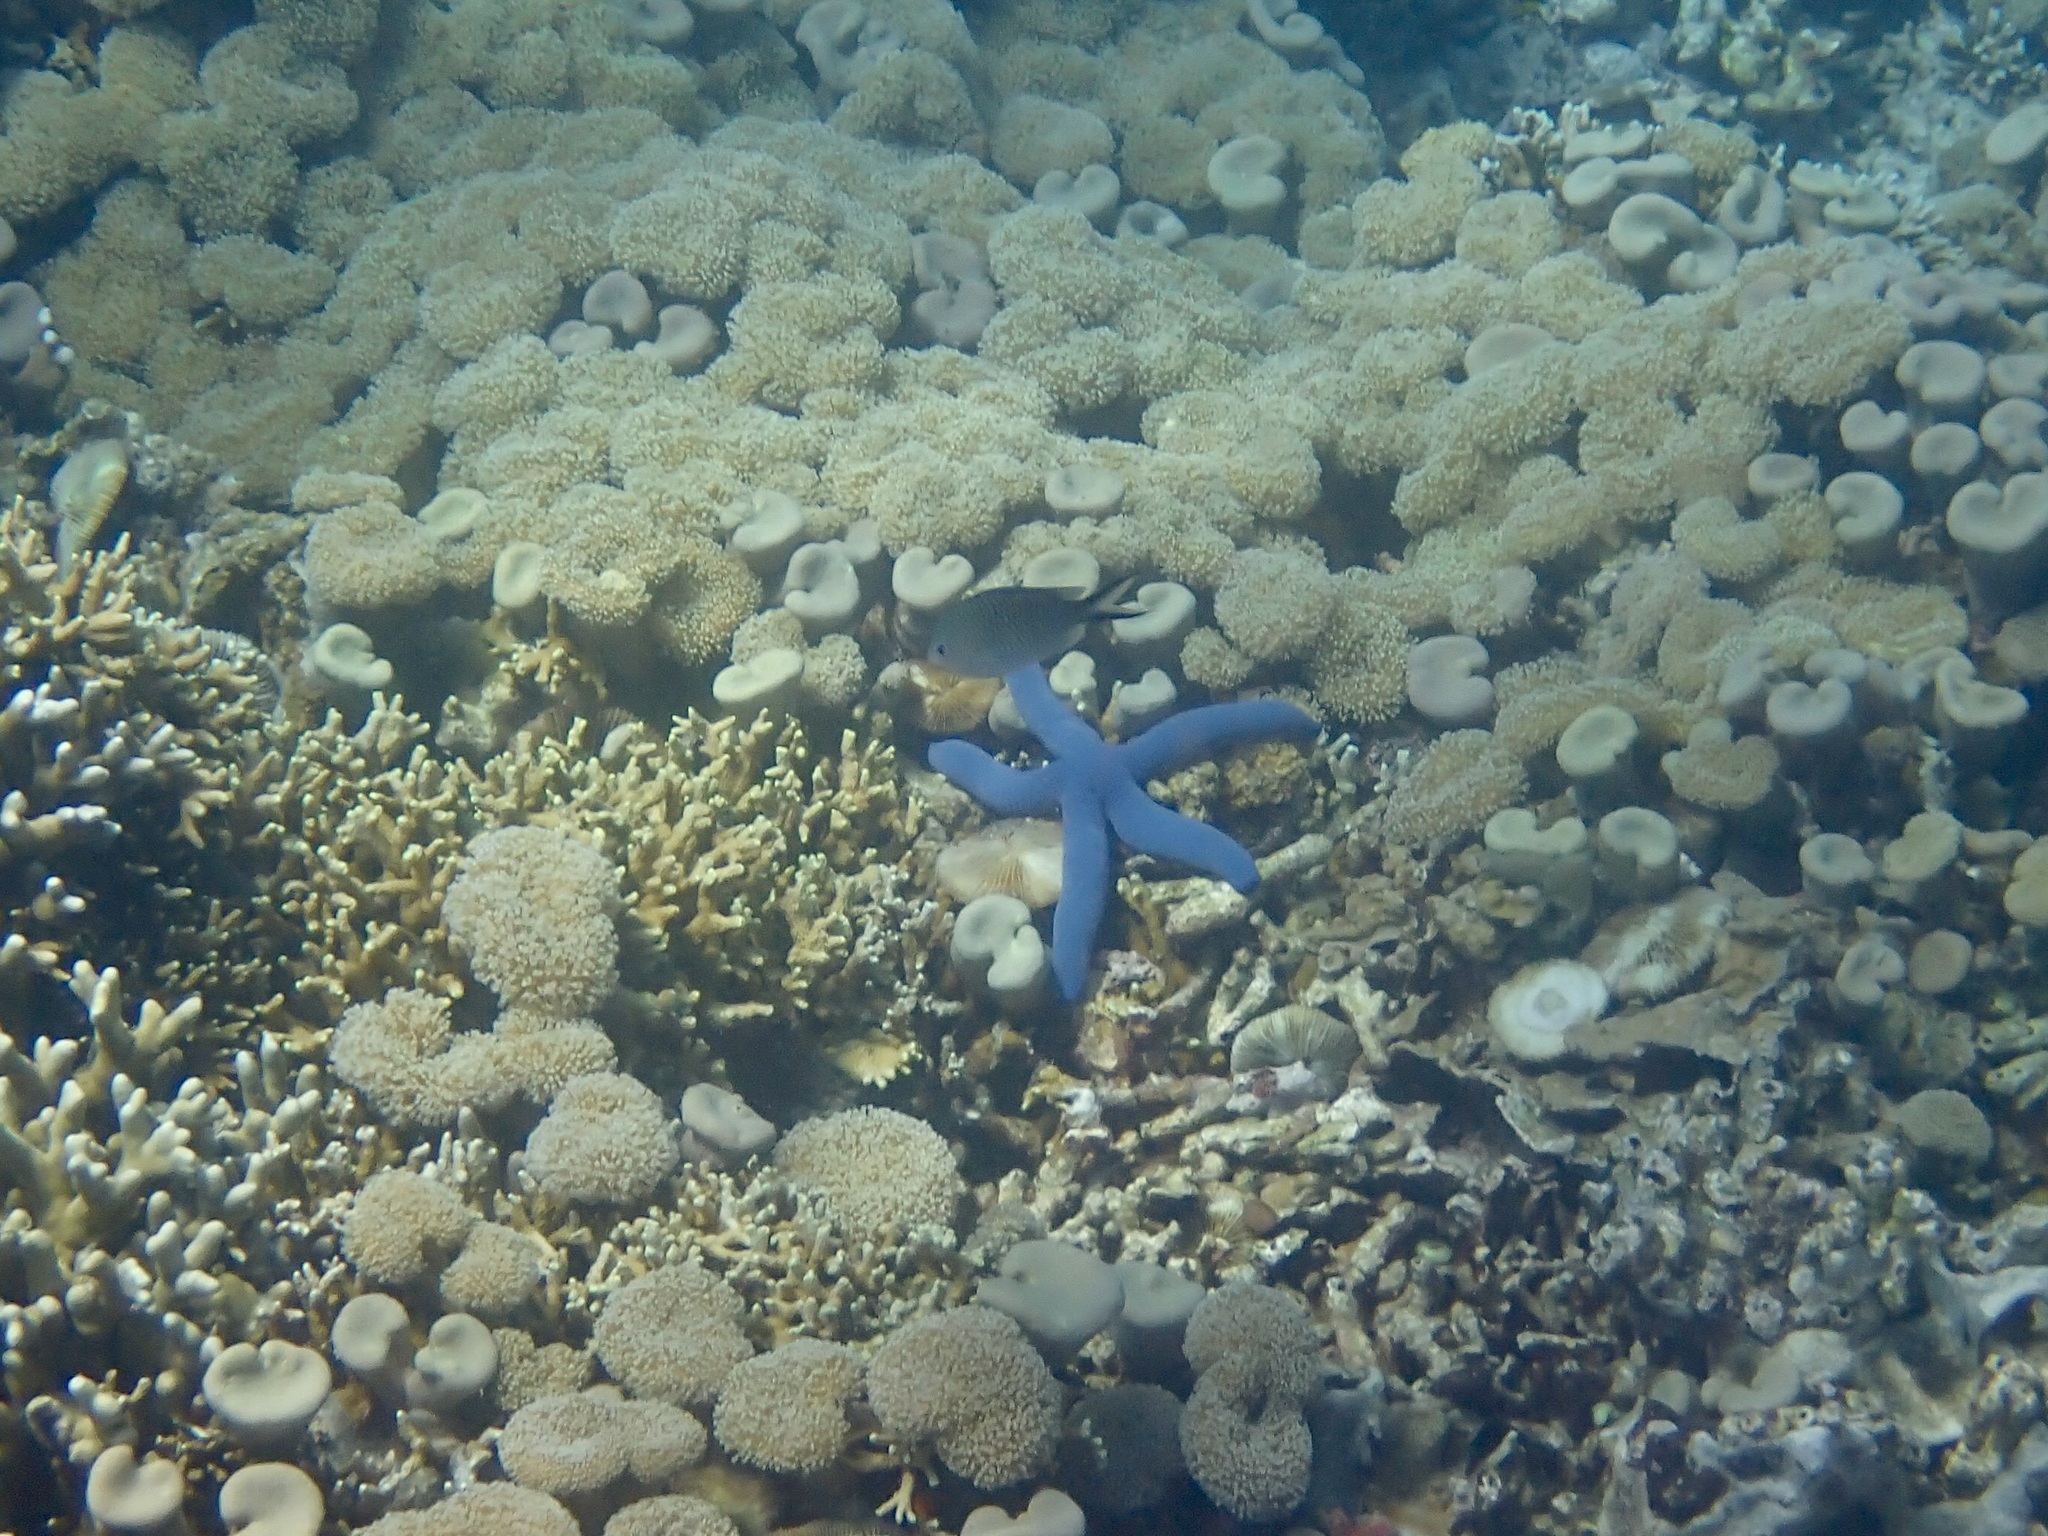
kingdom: Animalia
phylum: Echinodermata
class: Asteroidea
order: Valvatida
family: Ophidiasteridae
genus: Linckia
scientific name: Linckia laevigata
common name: Azure sea star
